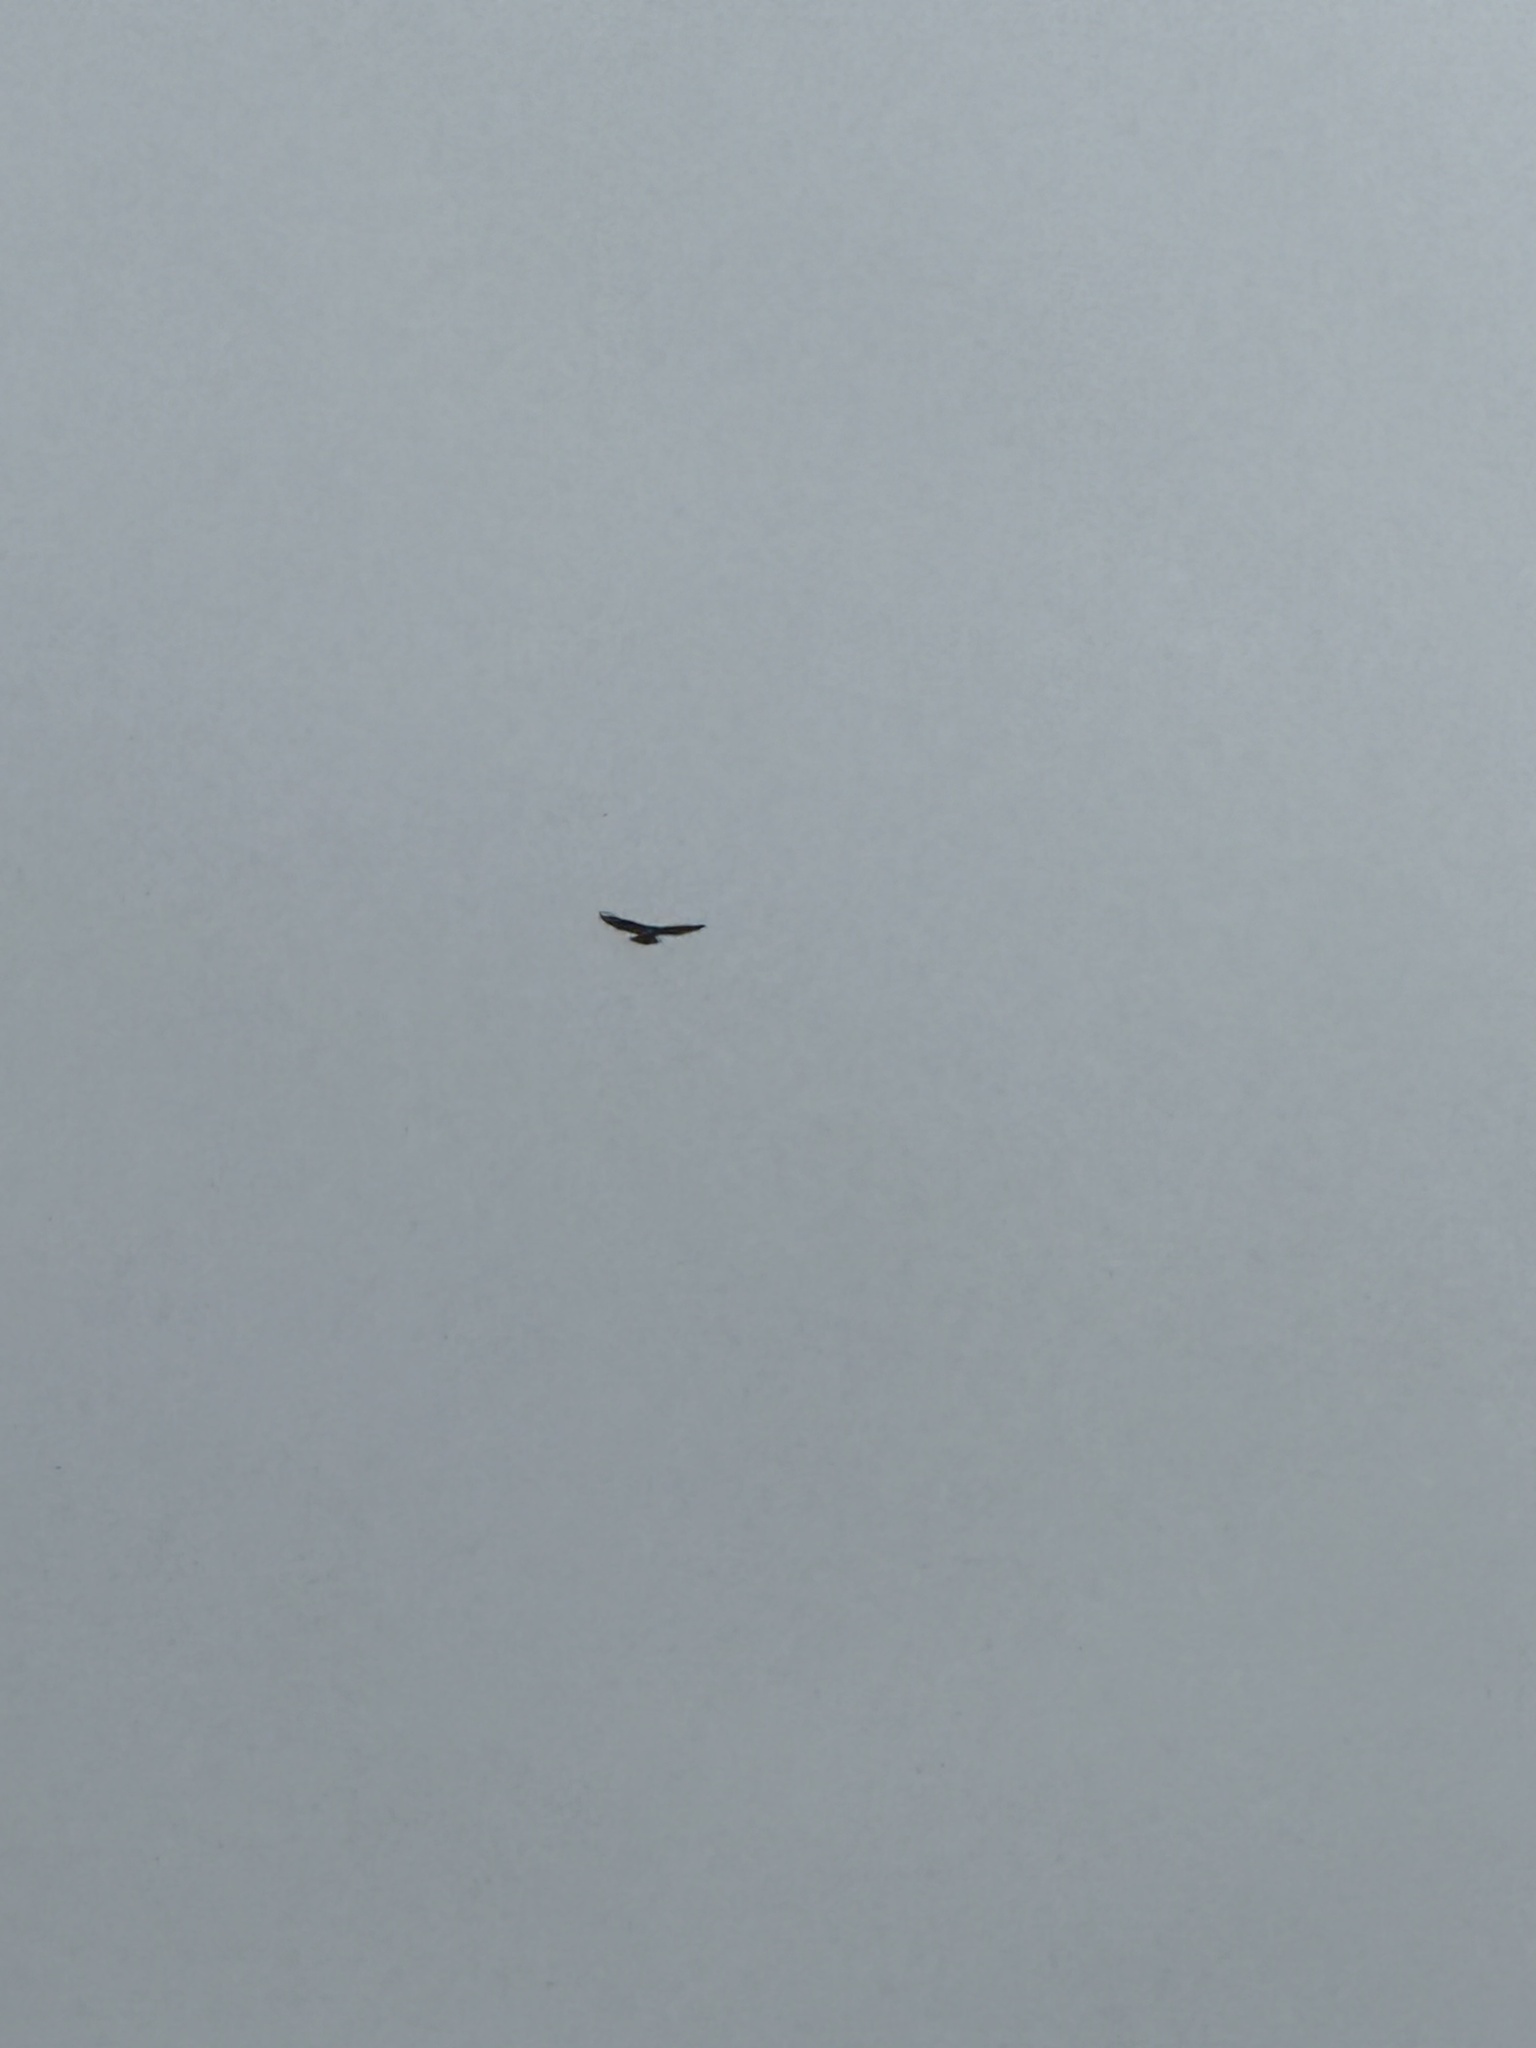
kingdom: Animalia
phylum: Chordata
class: Aves
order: Accipitriformes
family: Accipitridae
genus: Buteo
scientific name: Buteo jamaicensis
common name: Red-tailed hawk
